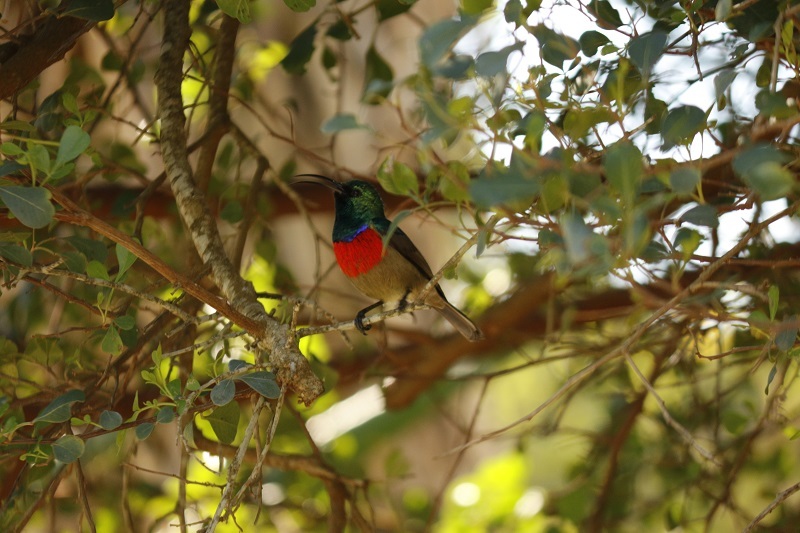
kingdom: Animalia
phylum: Chordata
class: Aves
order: Passeriformes
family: Nectariniidae
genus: Cinnyris
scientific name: Cinnyris afer
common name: Greater double-collared sunbird
